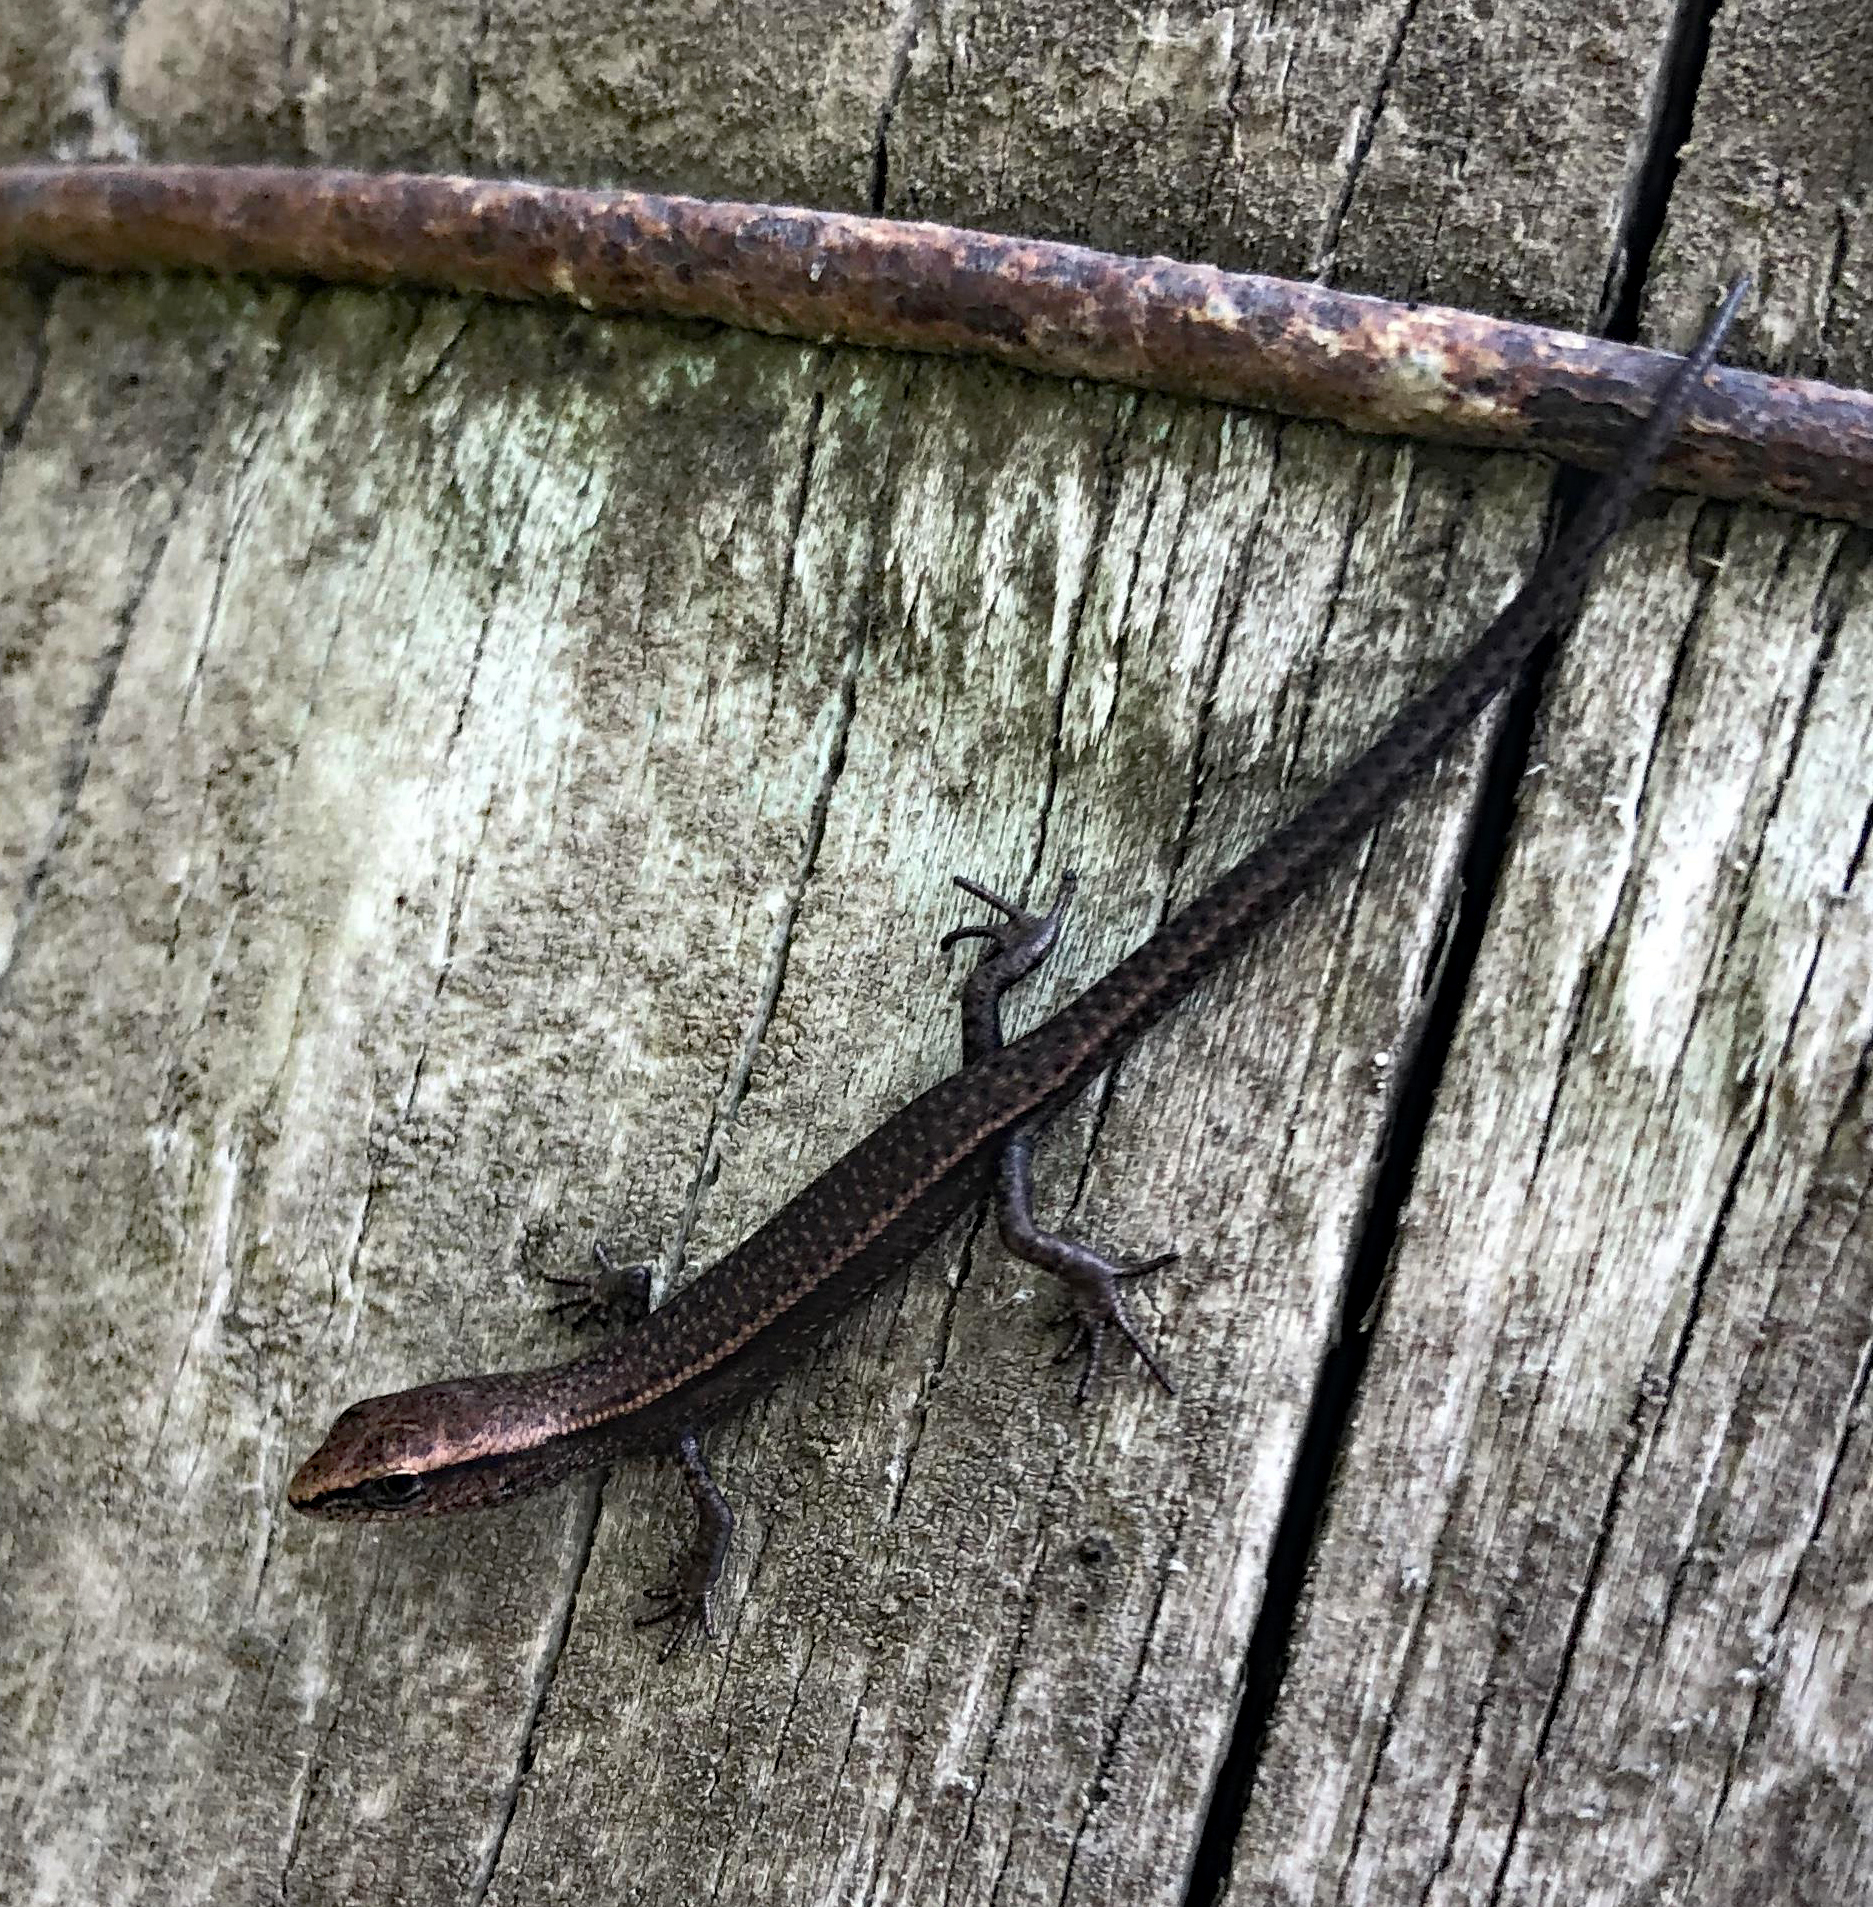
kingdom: Animalia
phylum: Chordata
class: Squamata
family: Scincidae
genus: Lampropholis
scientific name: Lampropholis delicata
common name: Plague skink
